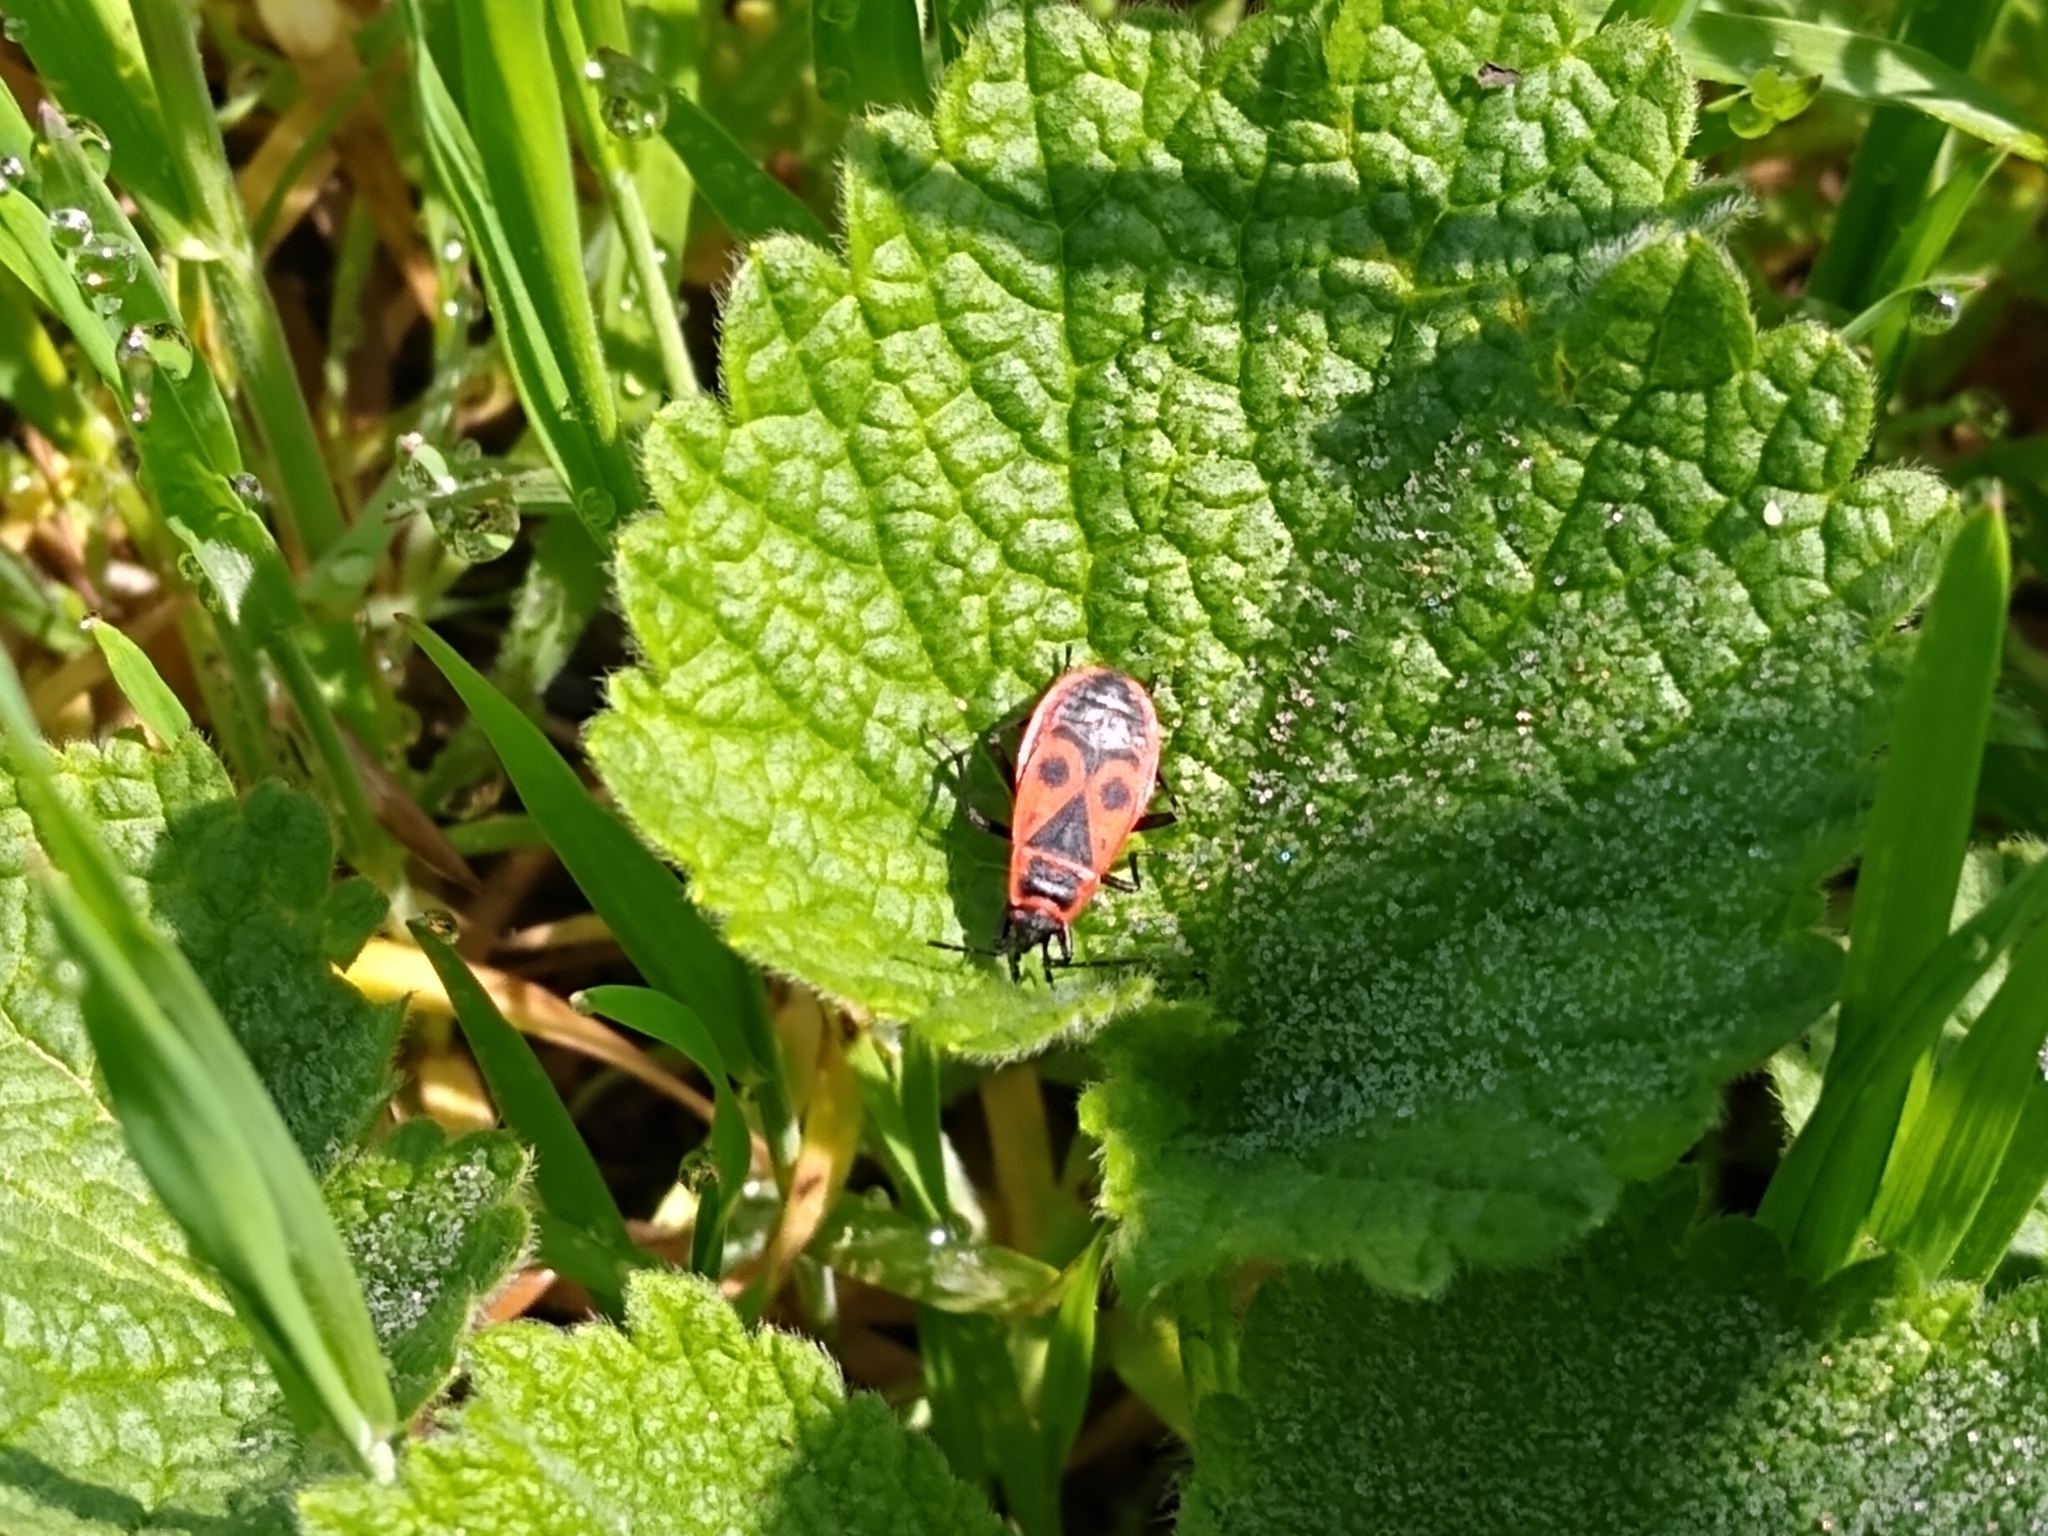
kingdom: Animalia
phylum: Arthropoda
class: Insecta
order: Hemiptera
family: Pyrrhocoridae
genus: Pyrrhocoris
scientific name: Pyrrhocoris apterus
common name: Firebug
